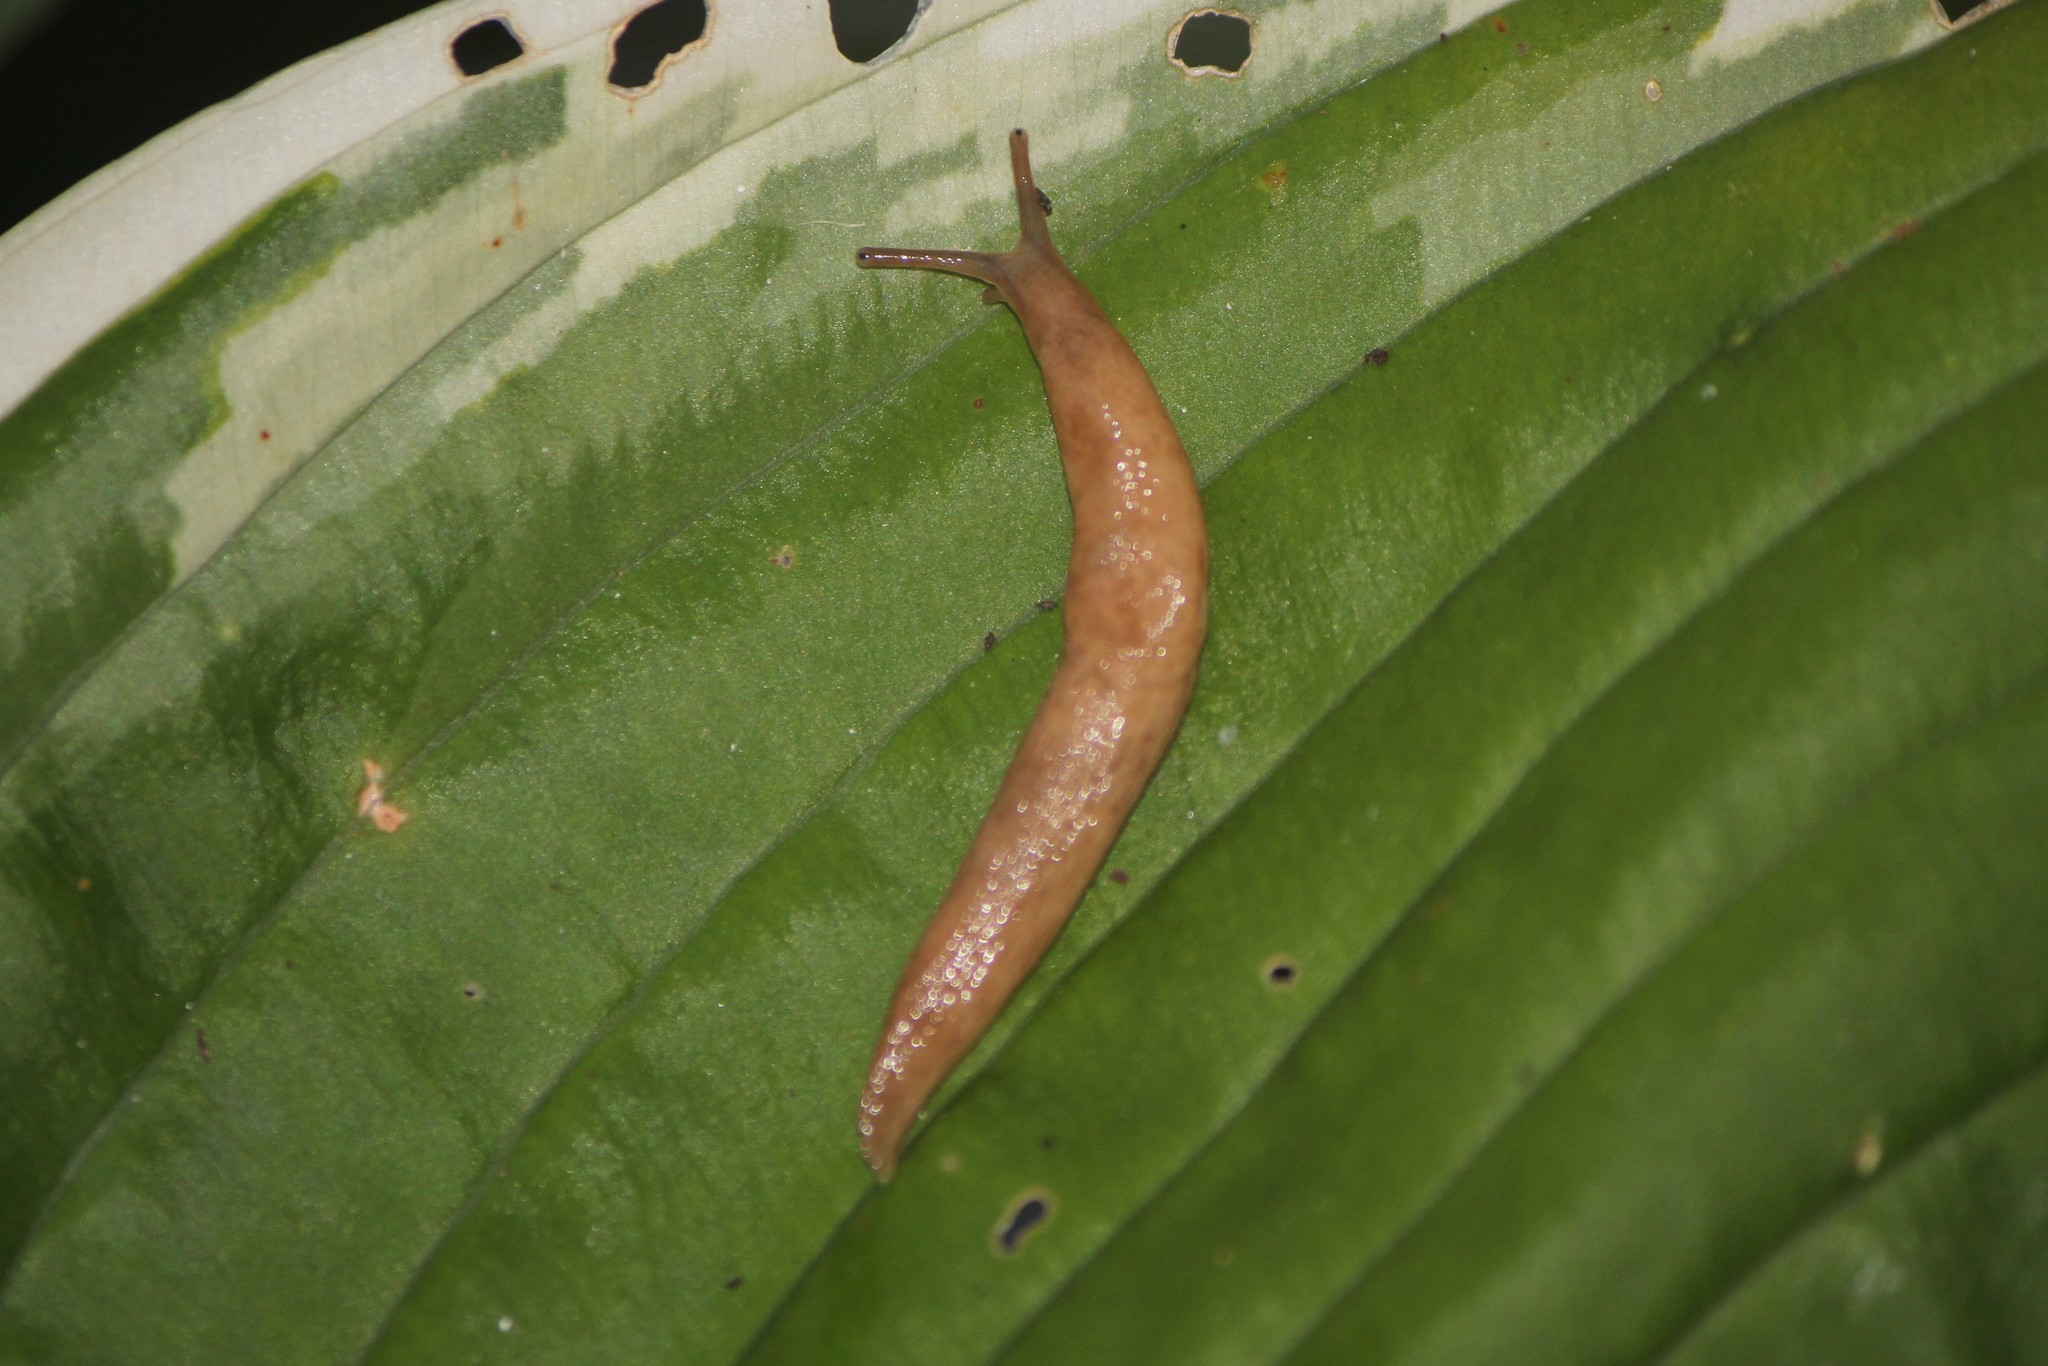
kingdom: Animalia
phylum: Mollusca
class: Gastropoda
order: Stylommatophora
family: Agriolimacidae
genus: Deroceras
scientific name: Deroceras reticulatum
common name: Gray field slug
